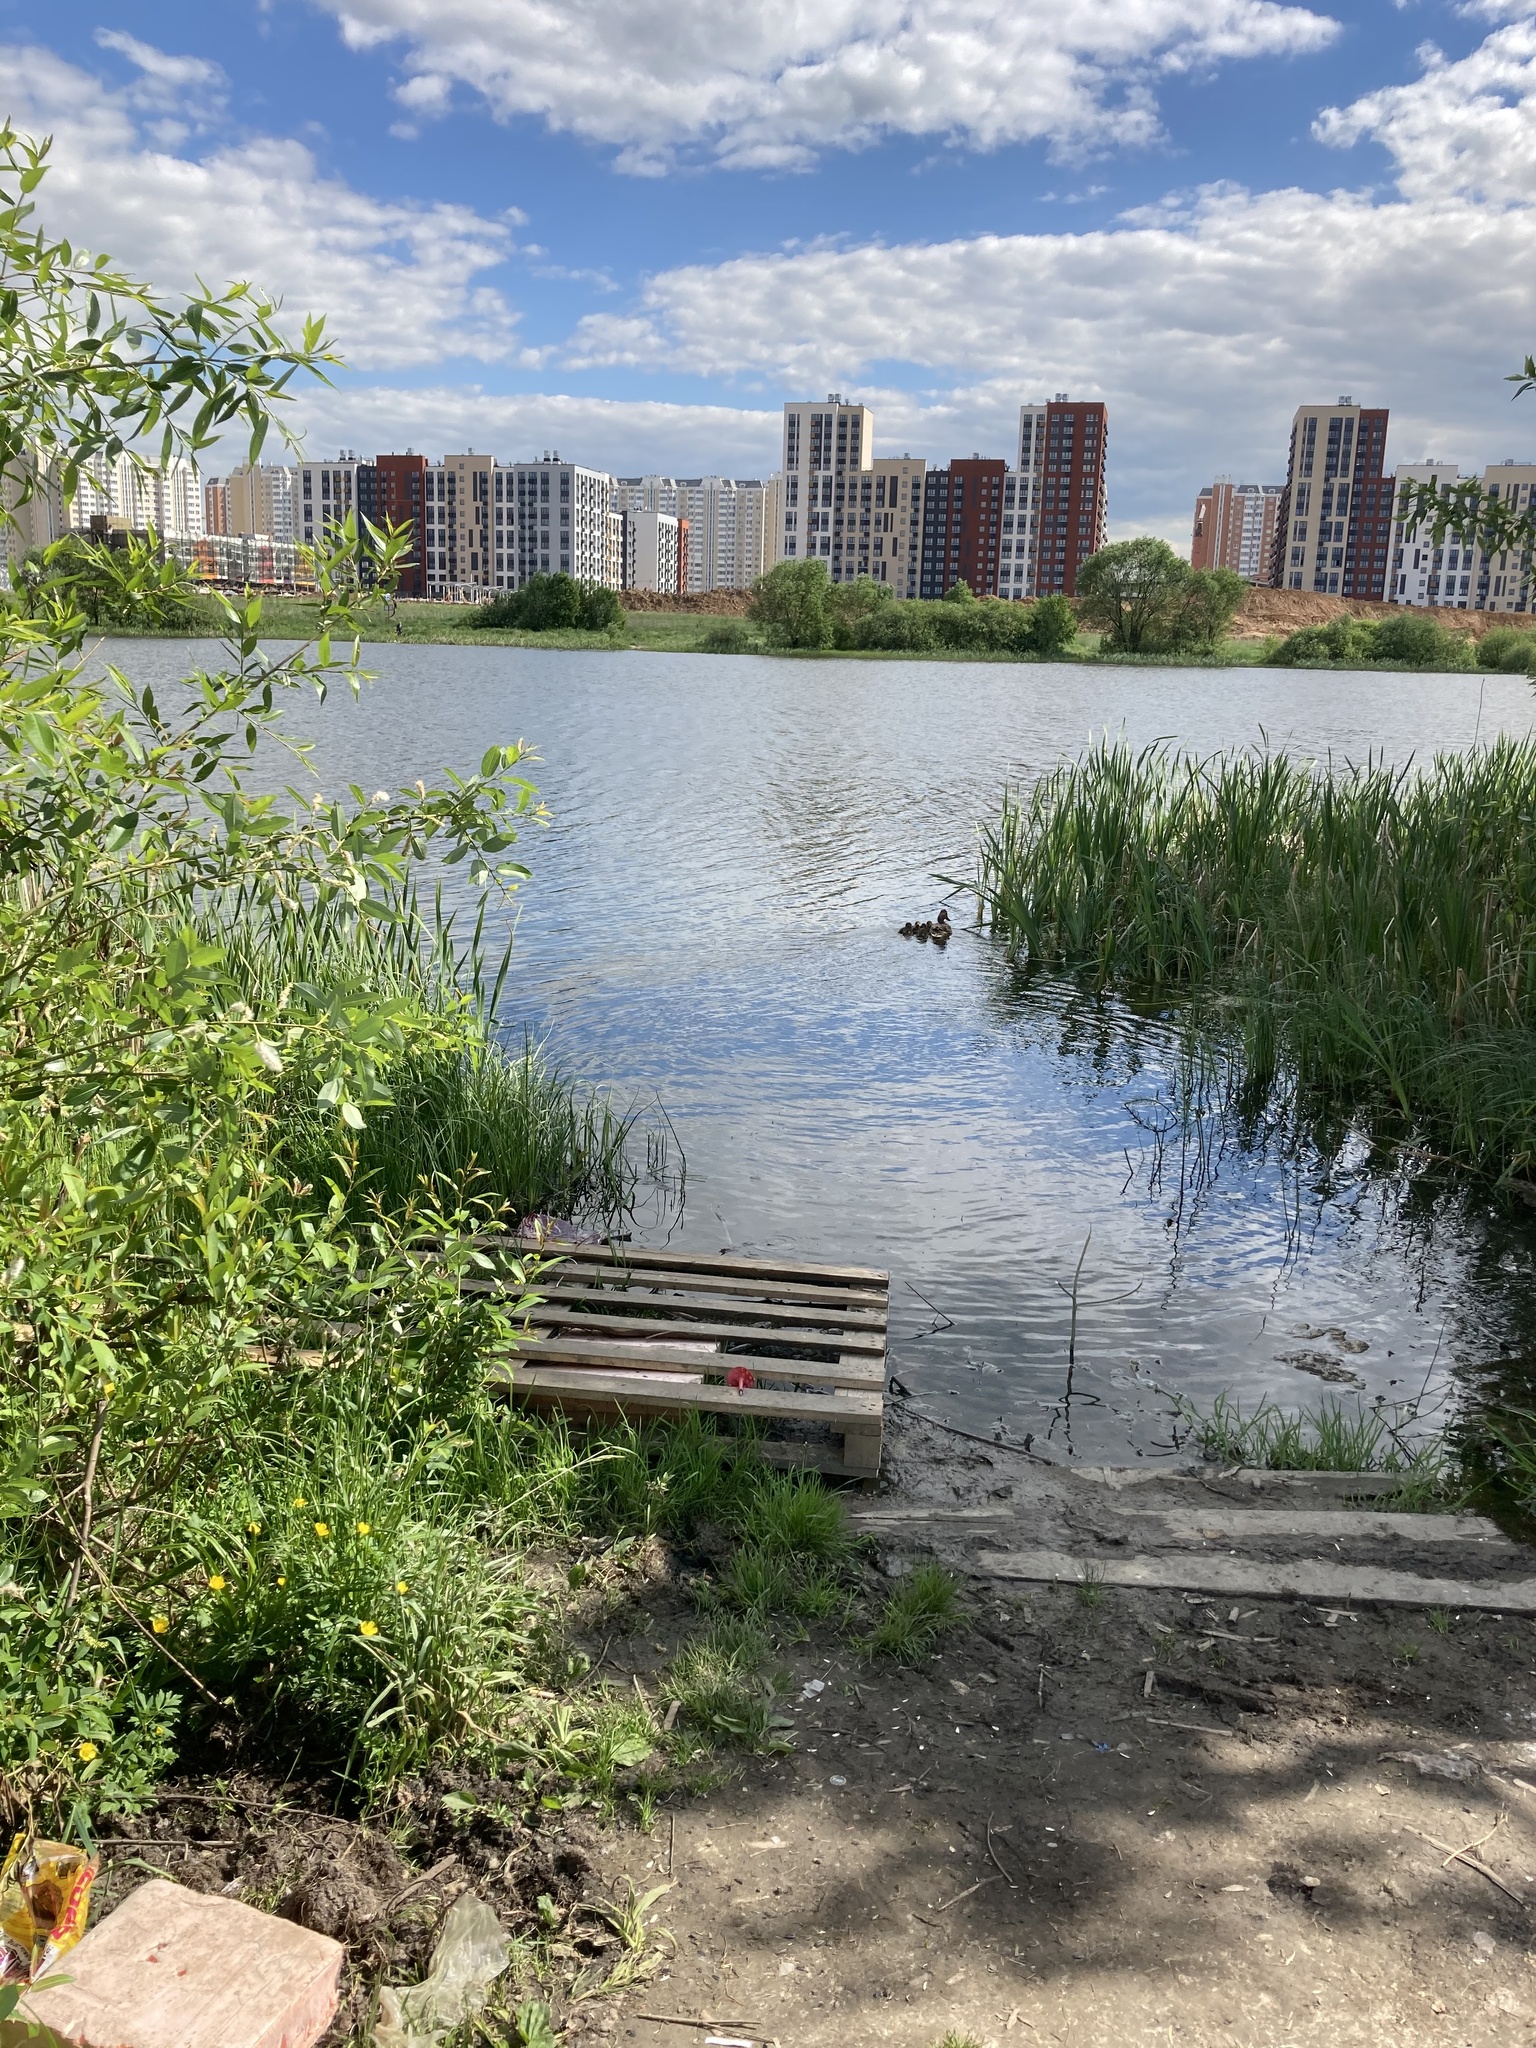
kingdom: Animalia
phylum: Chordata
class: Aves
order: Anseriformes
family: Anatidae
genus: Anas
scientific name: Anas platyrhynchos
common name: Mallard
